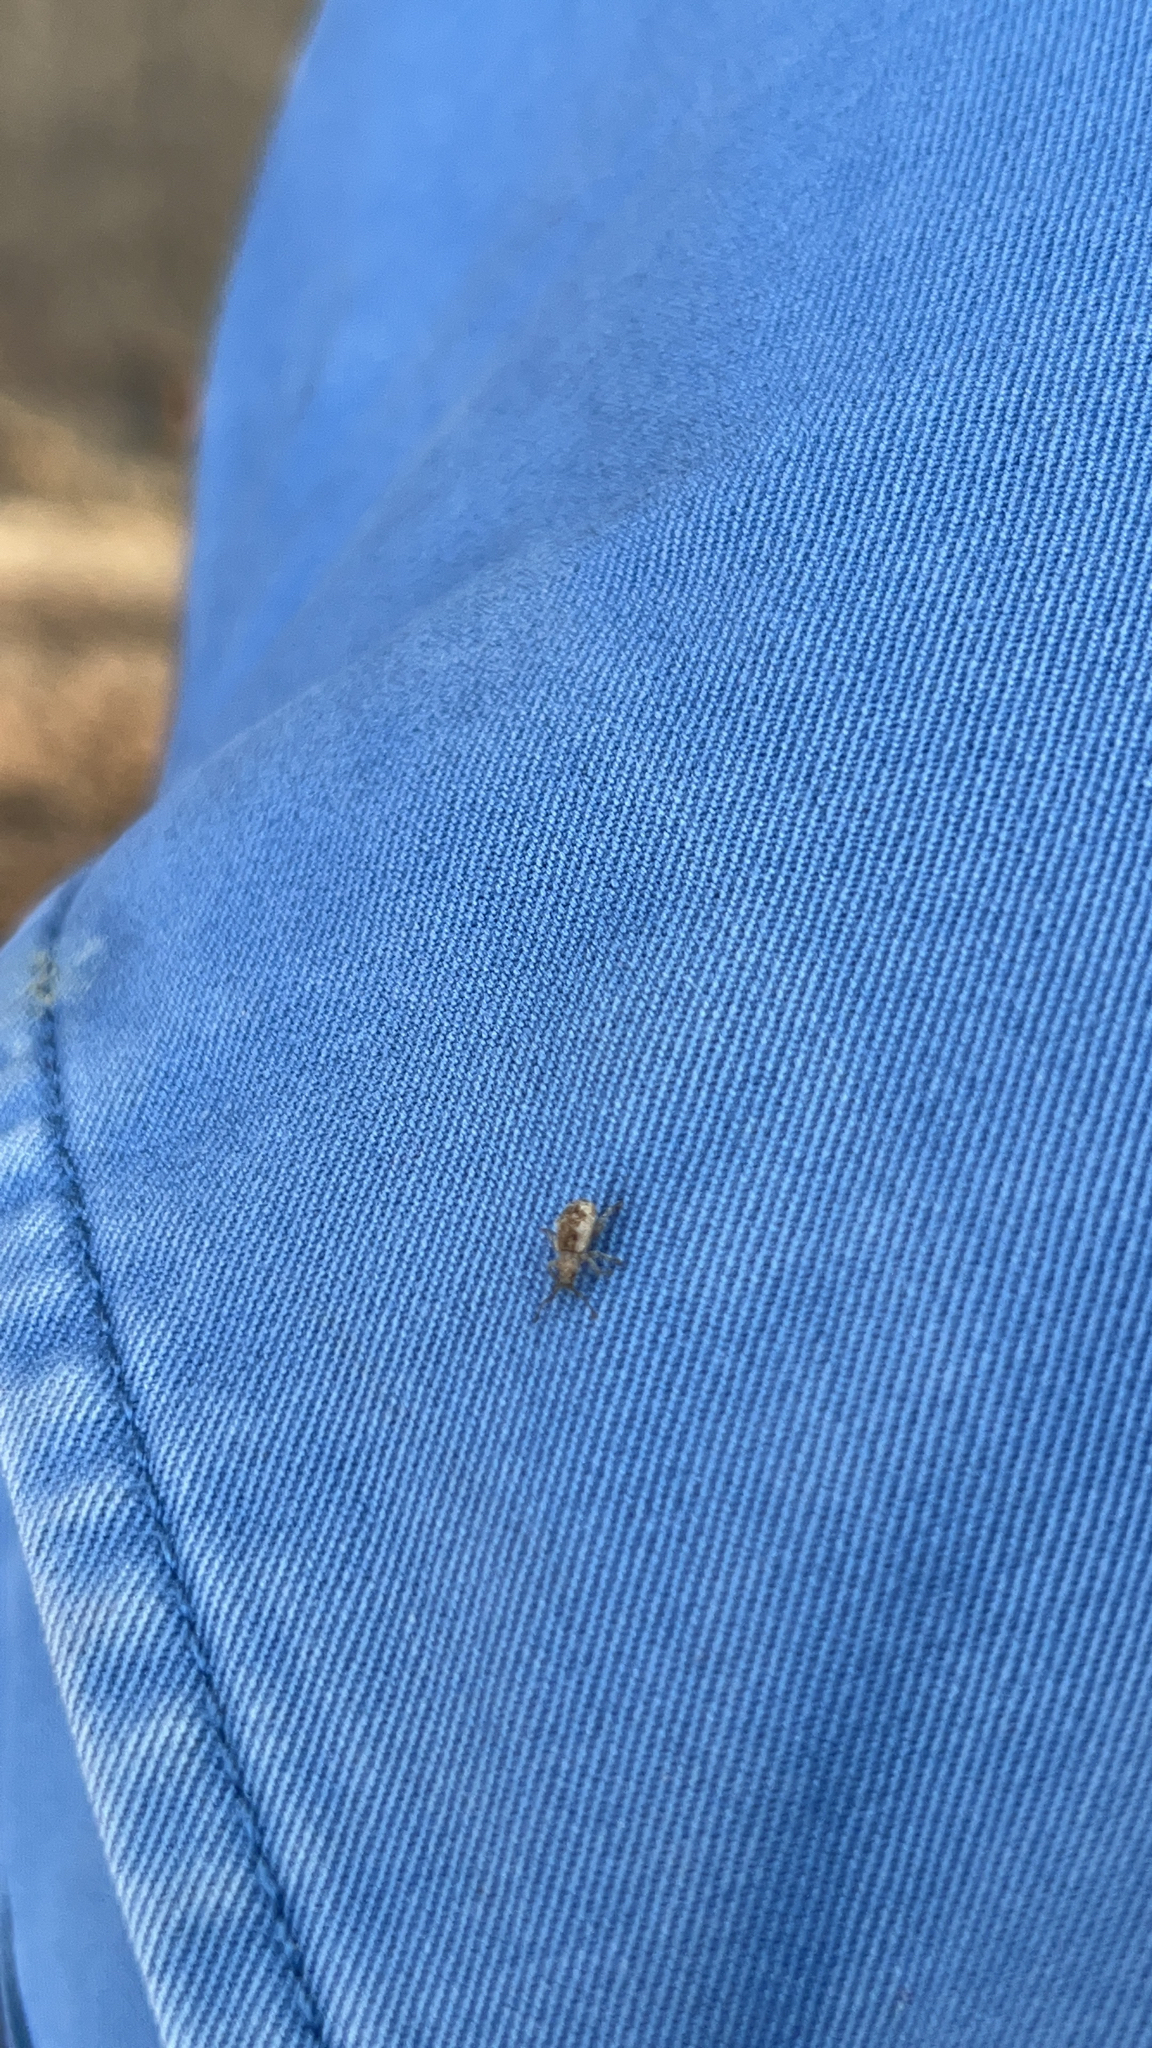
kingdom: Animalia
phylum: Arthropoda
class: Insecta
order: Coleoptera
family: Curculionidae
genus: Pseudoedophrys
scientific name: Pseudoedophrys hilleri
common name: Weevil
